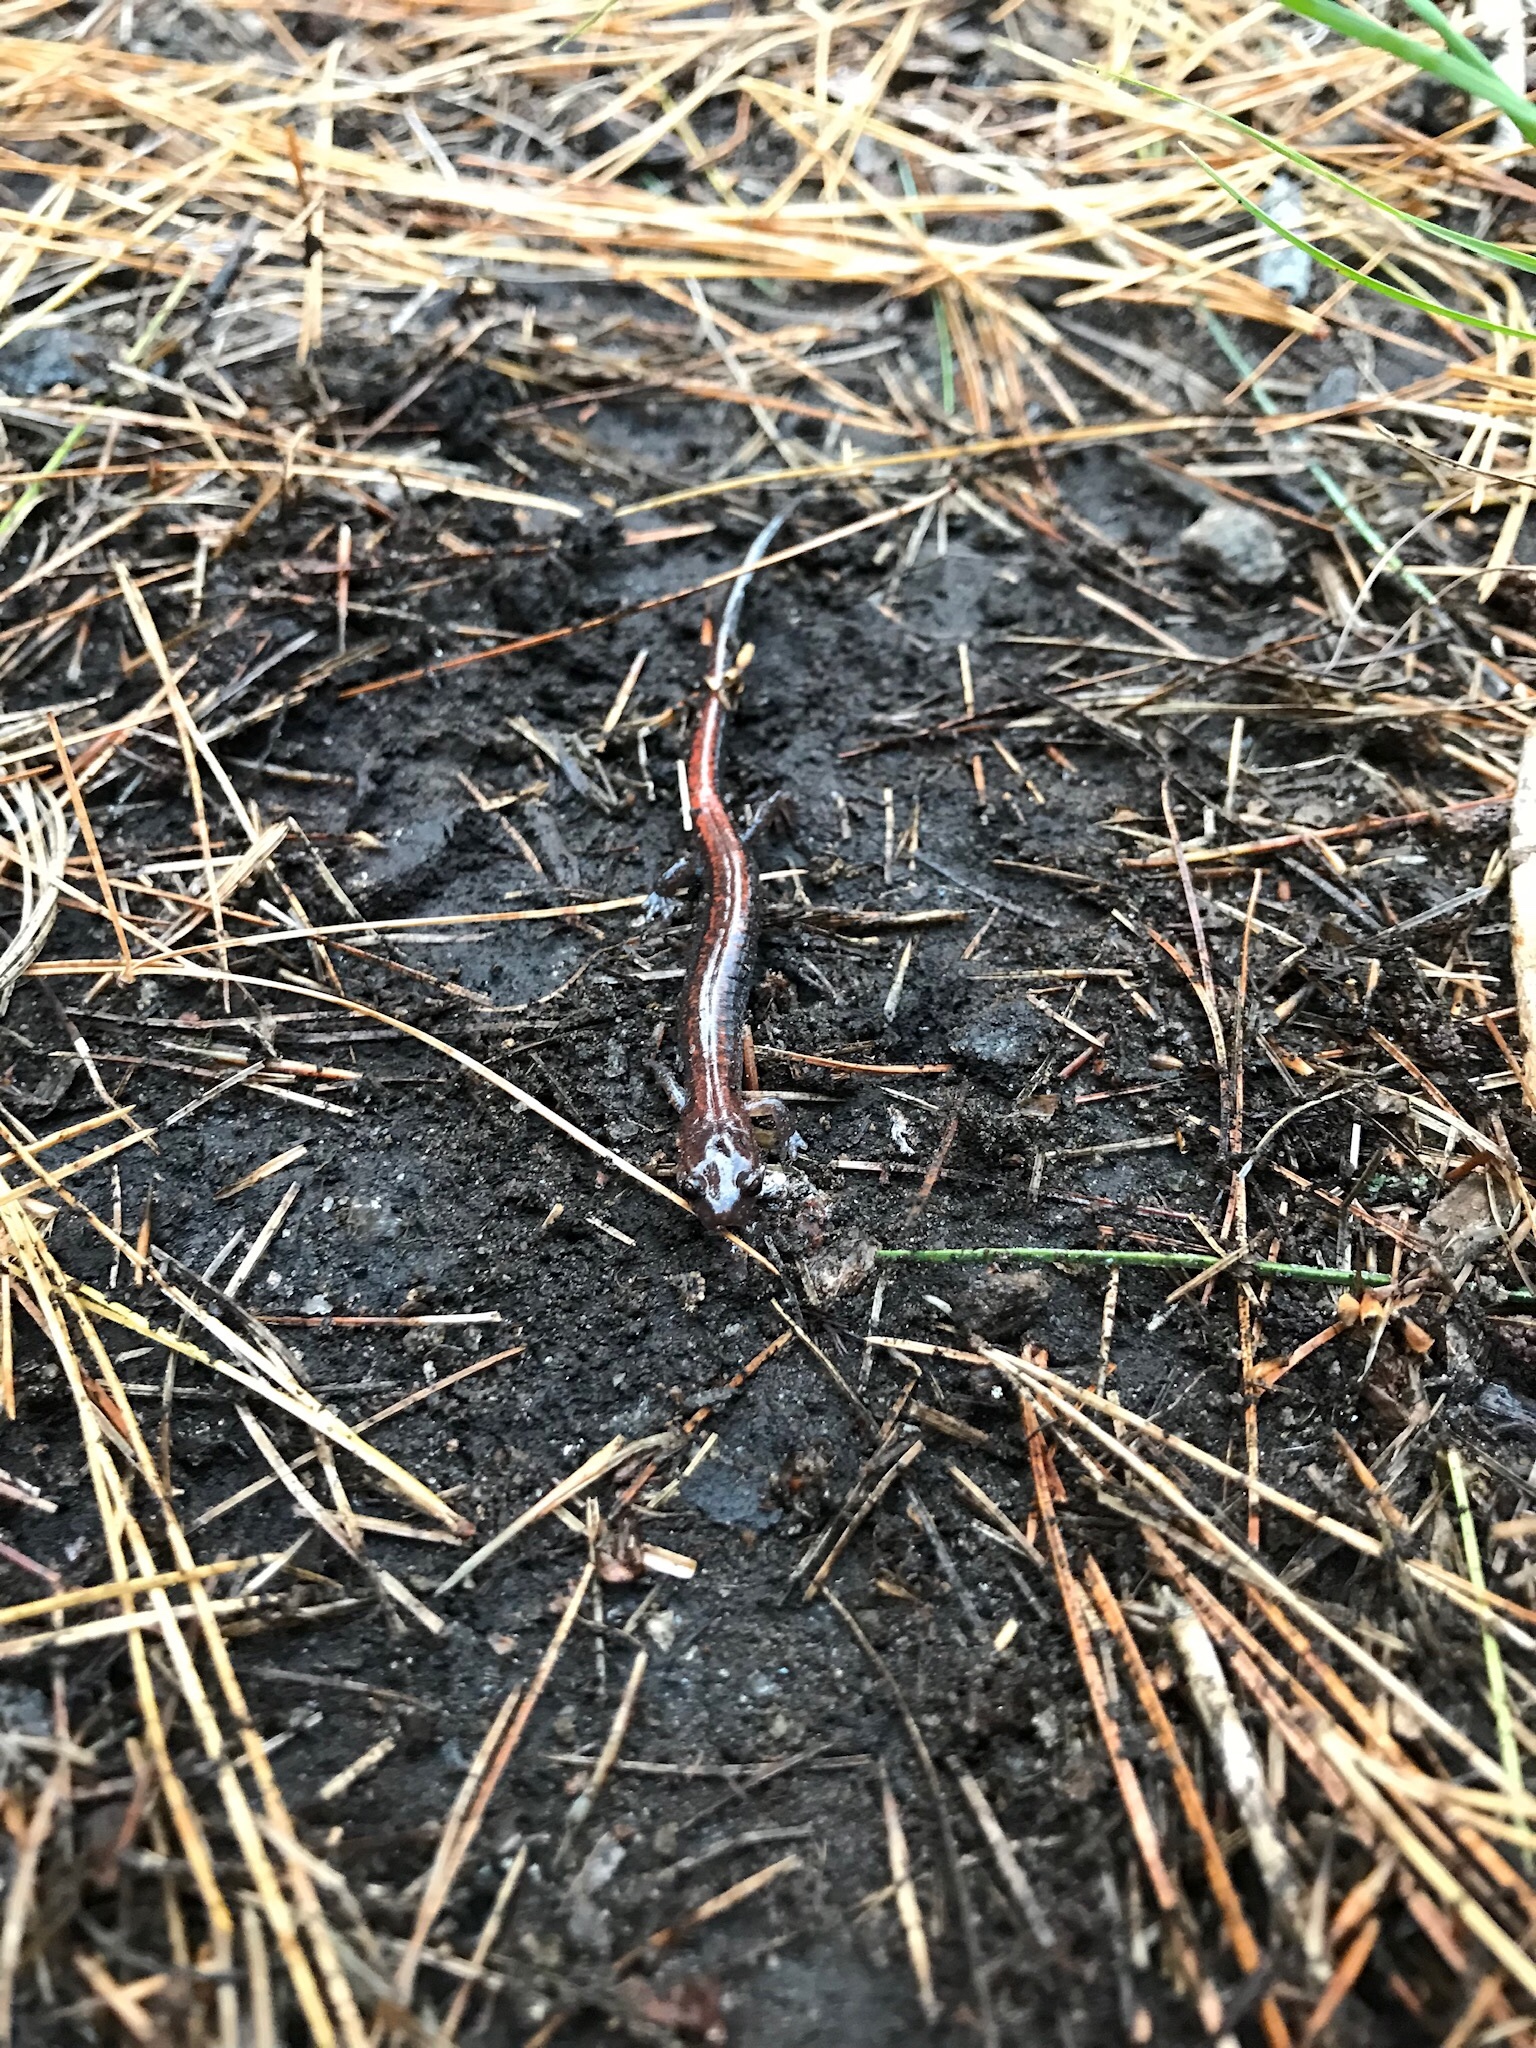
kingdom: Animalia
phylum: Chordata
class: Amphibia
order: Caudata
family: Plethodontidae
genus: Plethodon
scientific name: Plethodon cinereus
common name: Redback salamander
